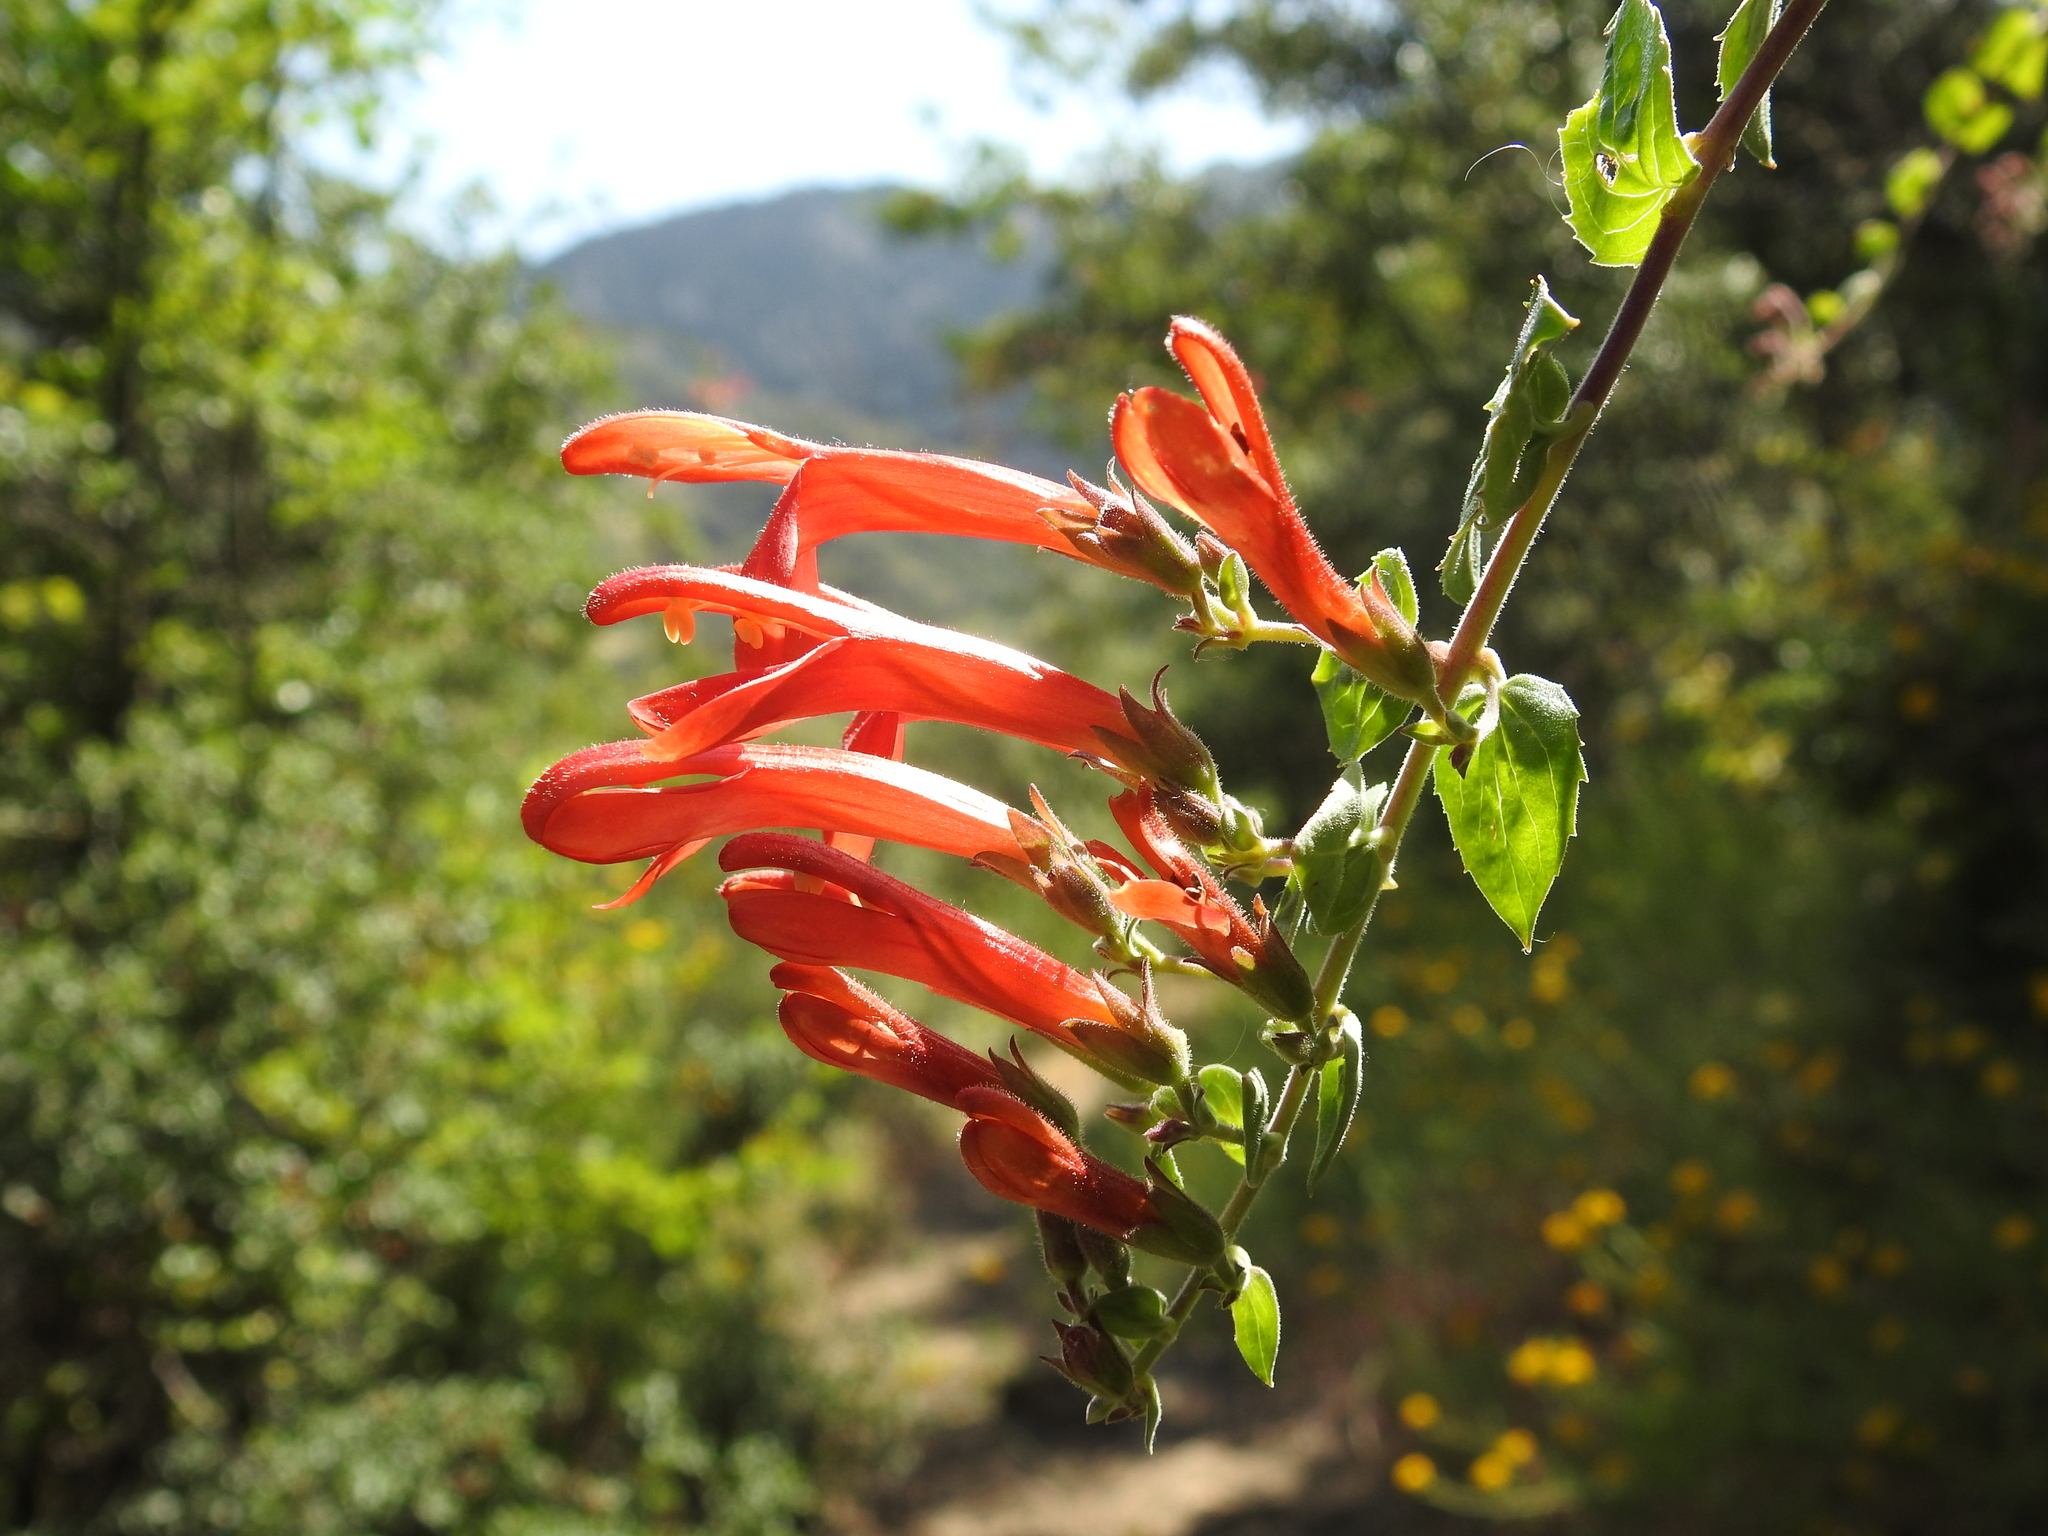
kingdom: Plantae
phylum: Tracheophyta
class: Magnoliopsida
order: Lamiales
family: Plantaginaceae
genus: Keckiella
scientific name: Keckiella cordifolia
